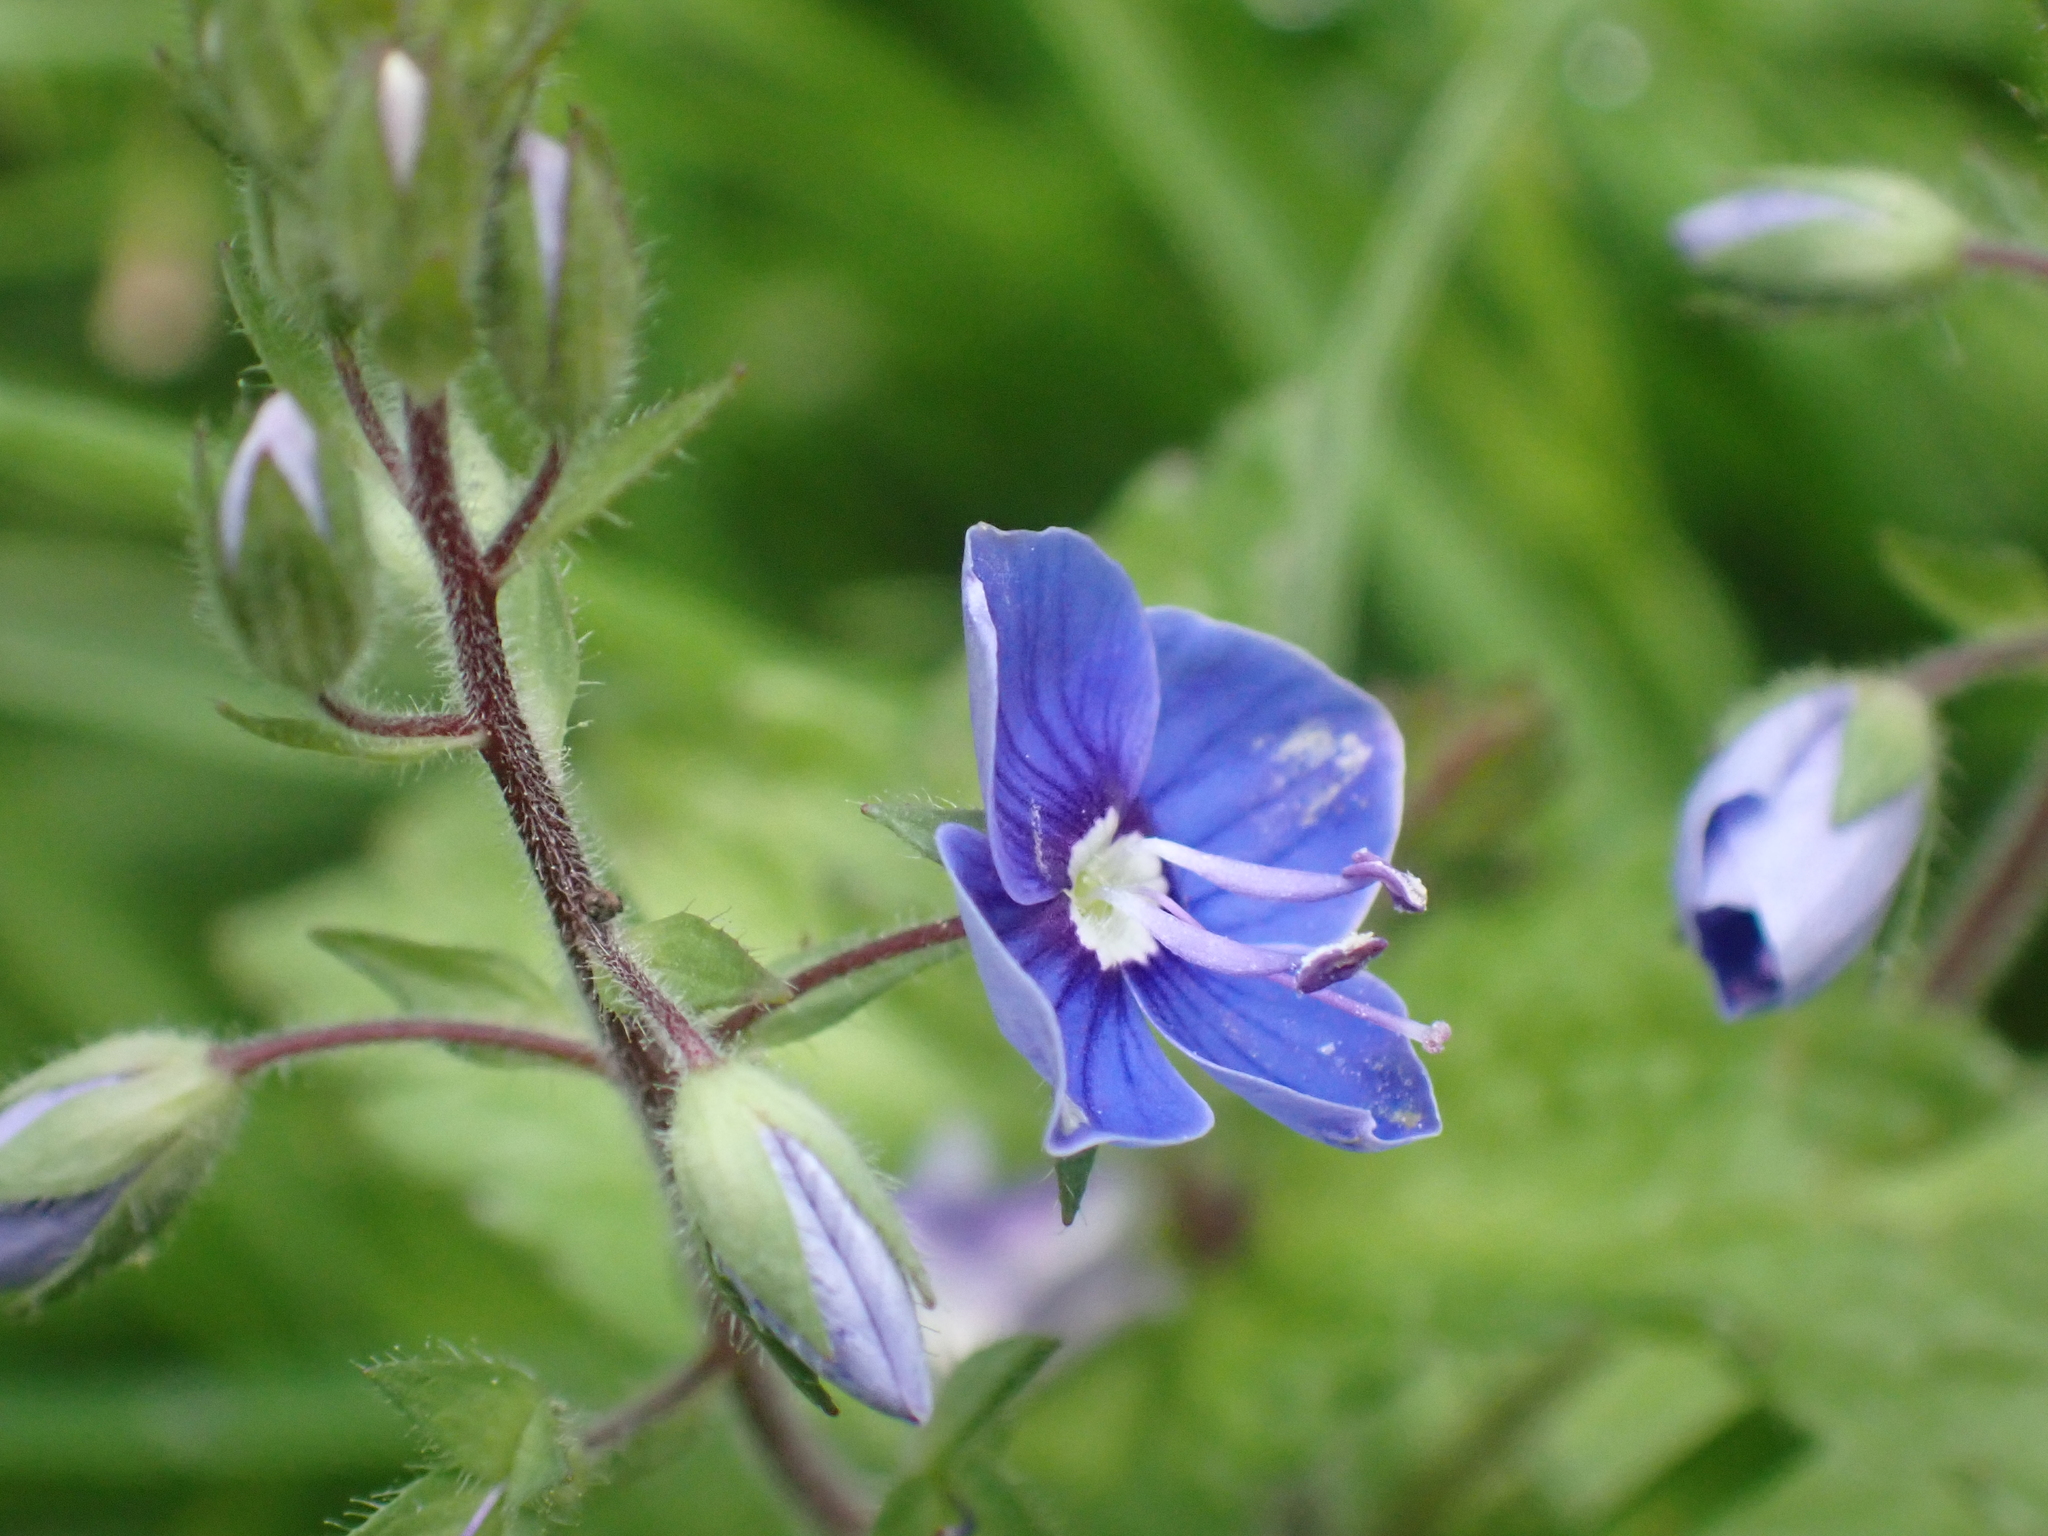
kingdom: Plantae
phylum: Tracheophyta
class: Magnoliopsida
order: Lamiales
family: Plantaginaceae
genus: Veronica
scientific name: Veronica chamaedrys
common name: Germander speedwell
